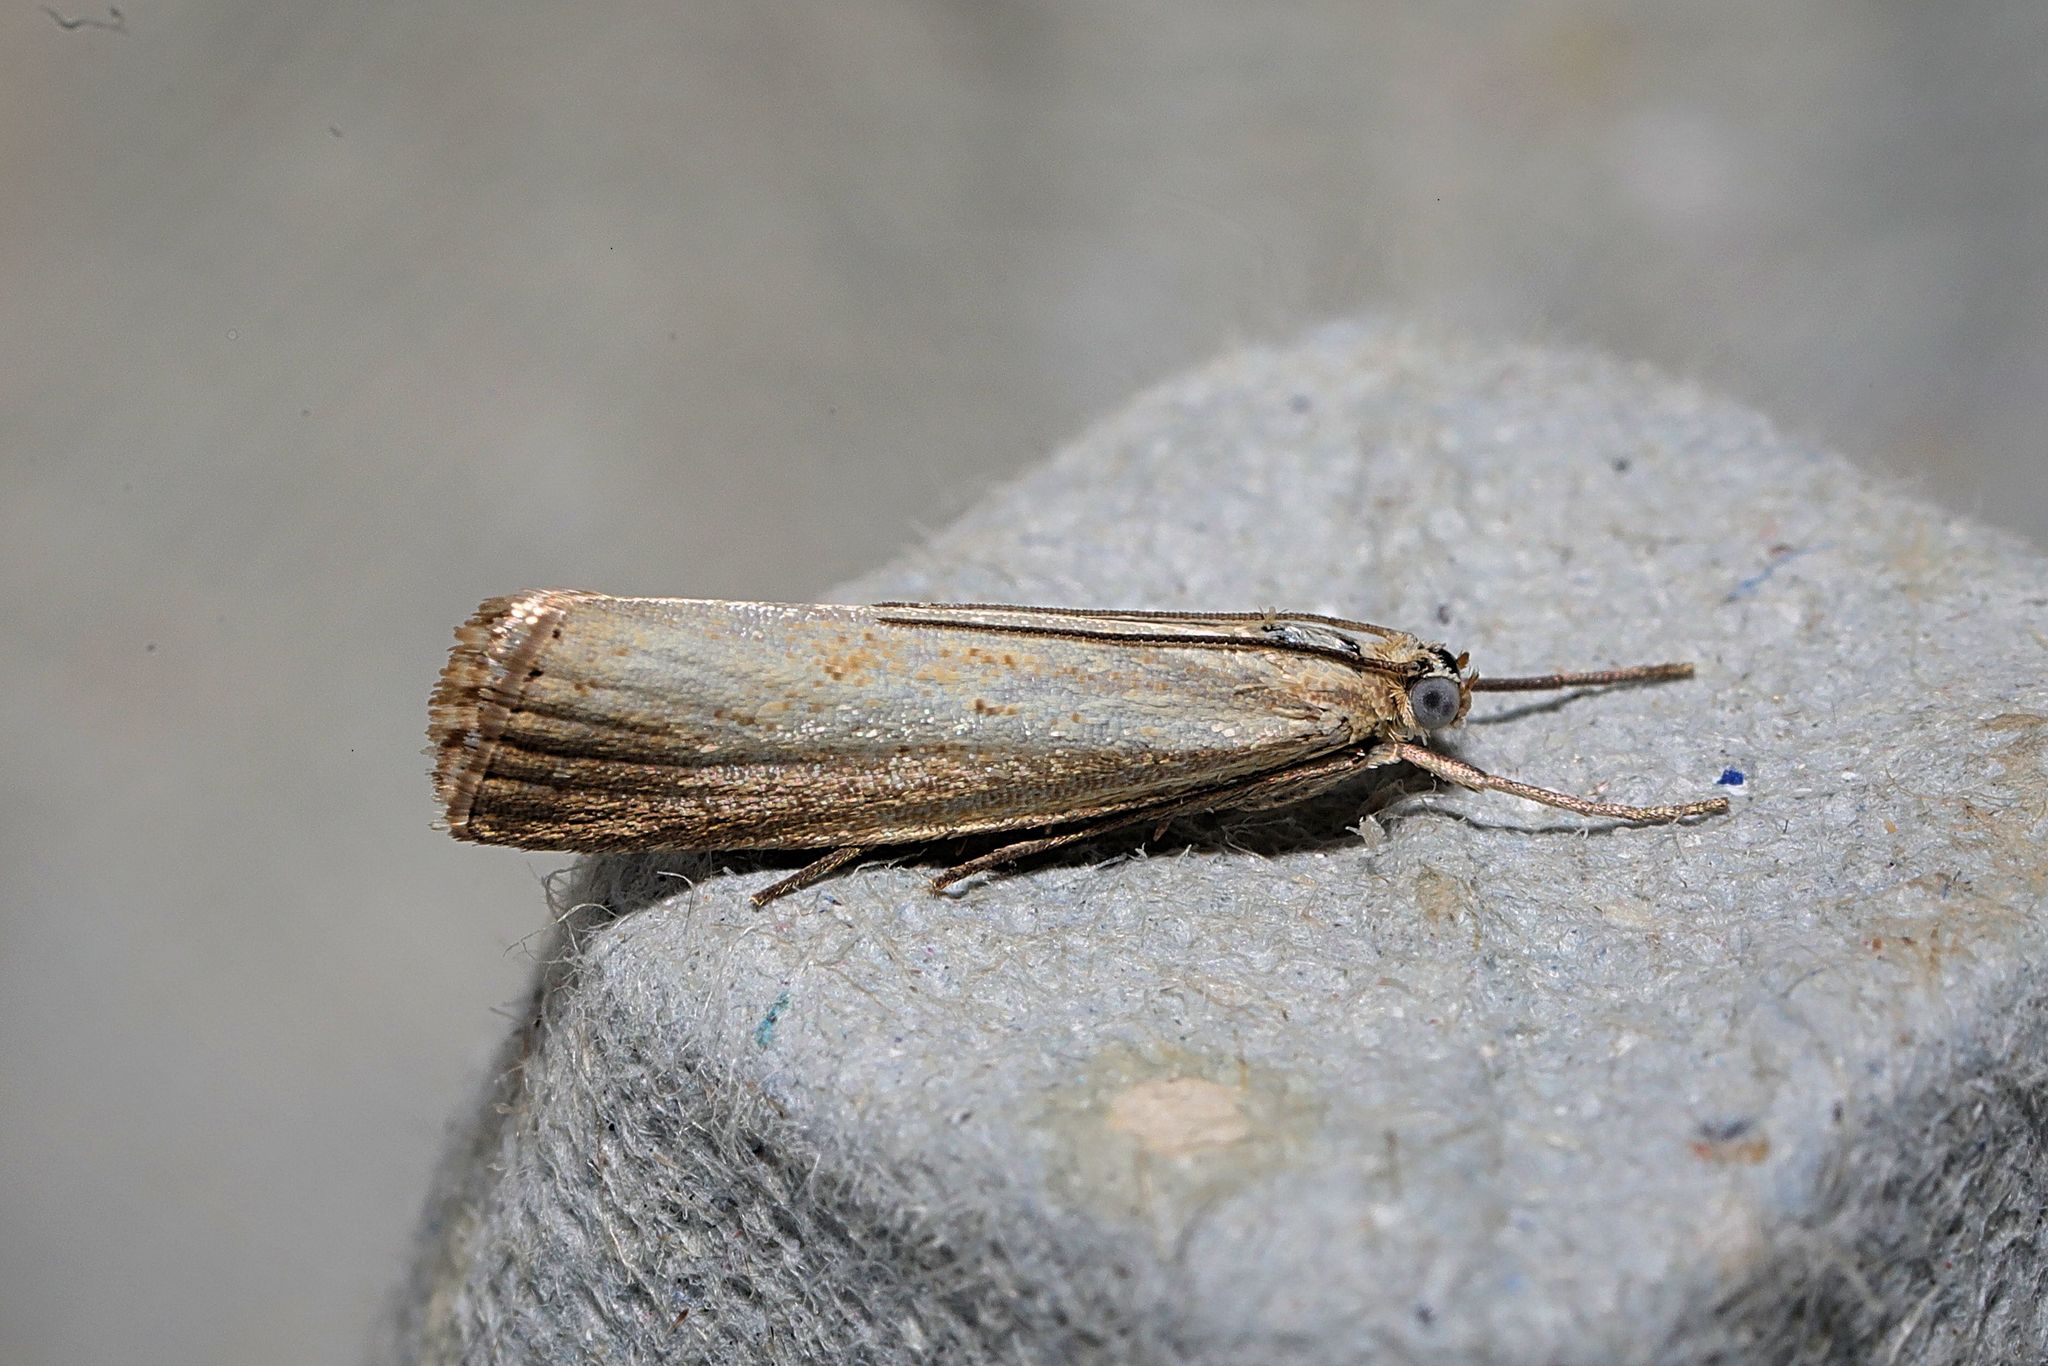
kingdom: Animalia
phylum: Arthropoda
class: Insecta
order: Lepidoptera
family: Crambidae
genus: Agriphila
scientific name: Agriphila straminella
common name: Straw grass-veneer
